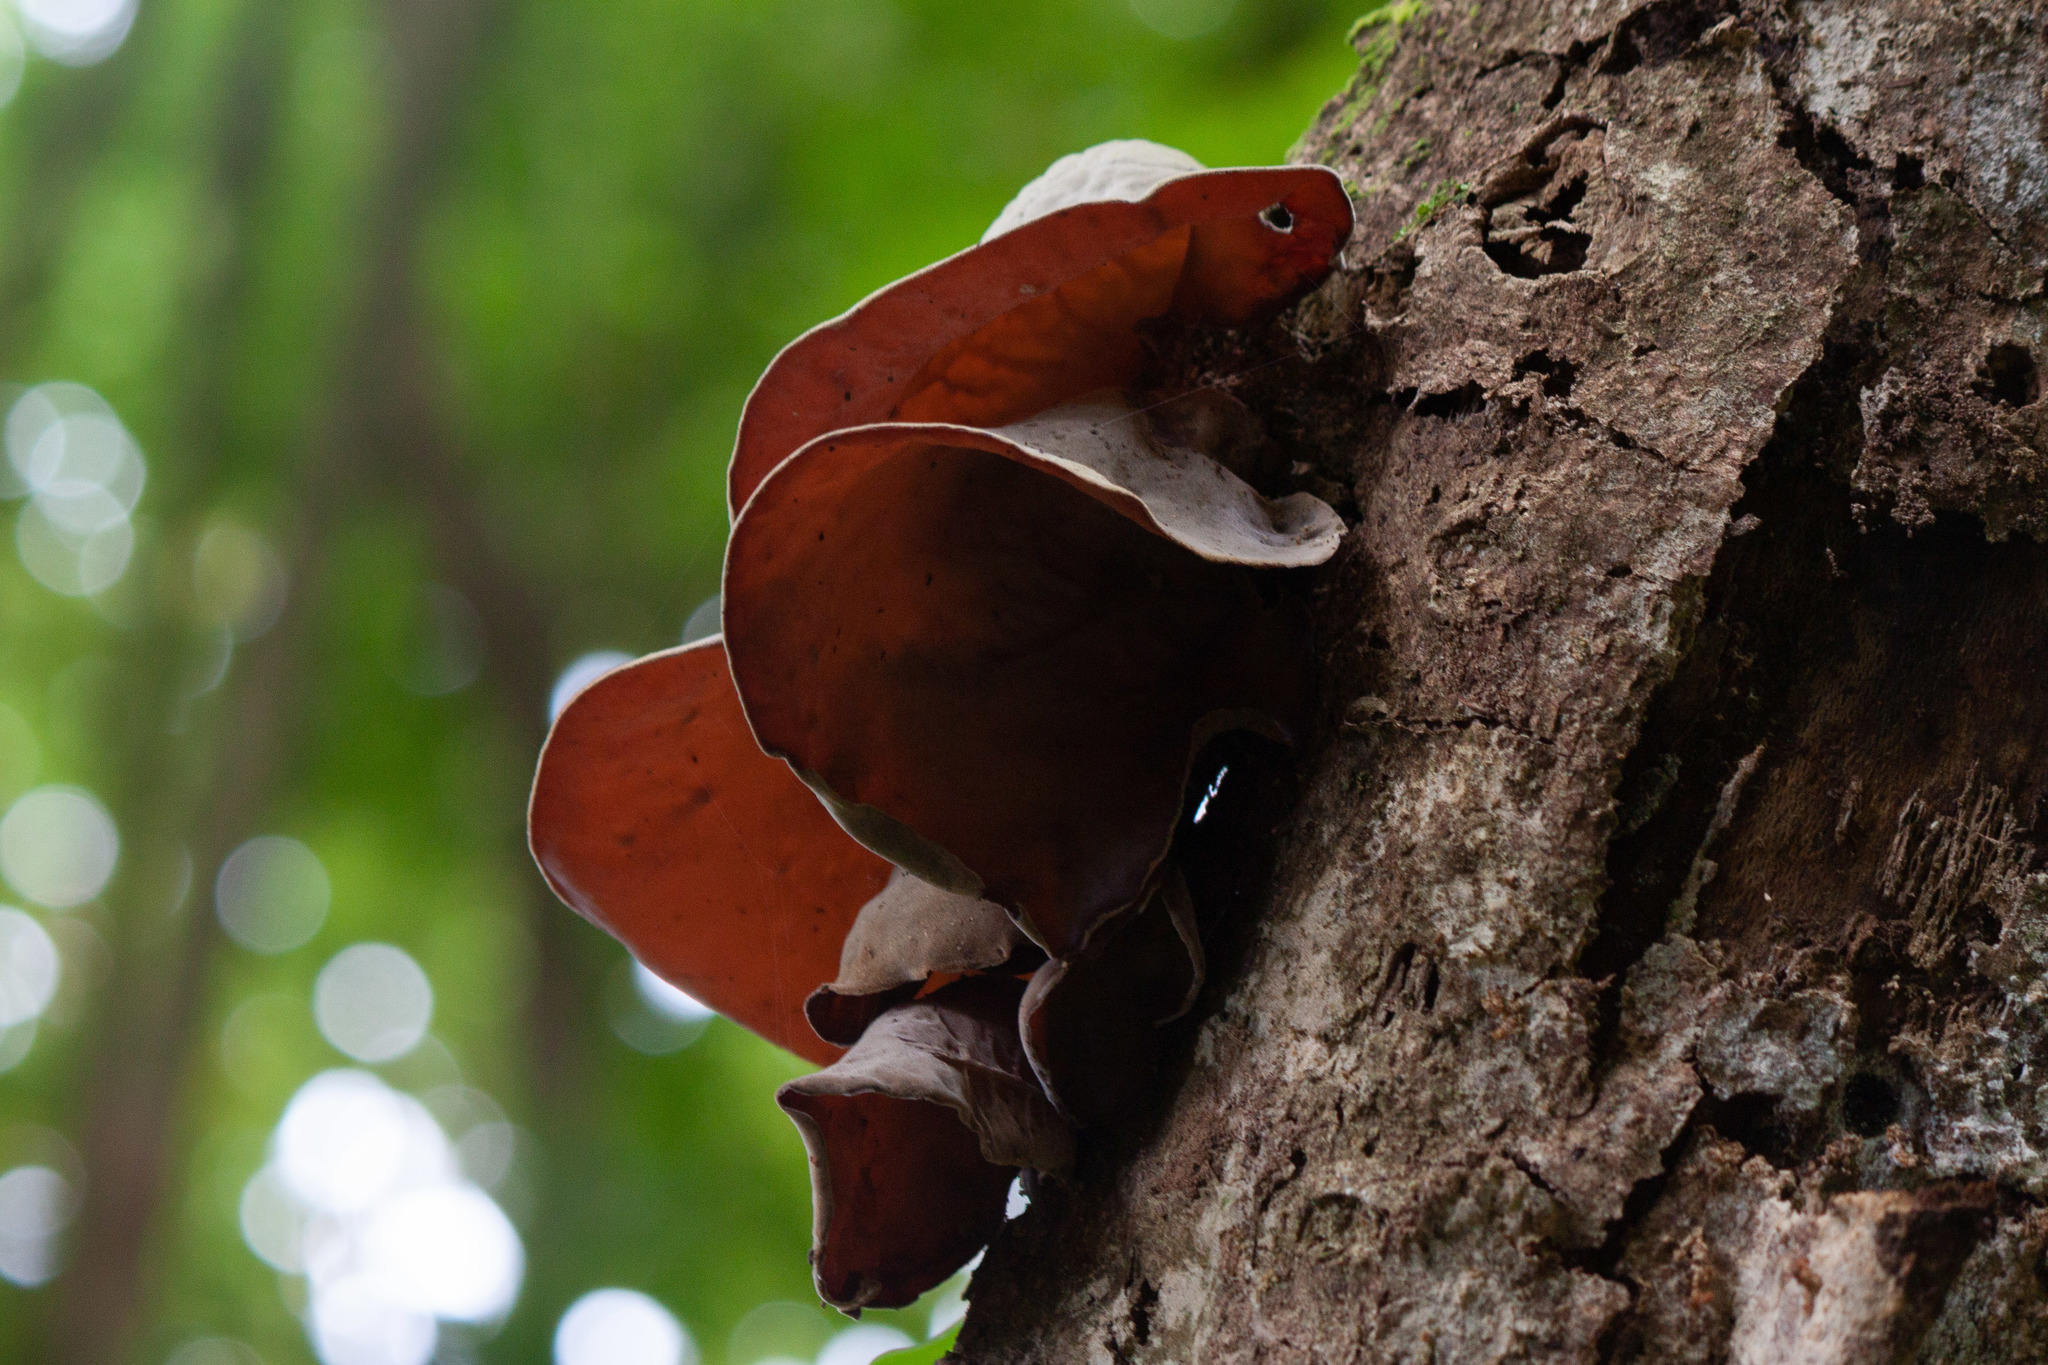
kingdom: Fungi
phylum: Basidiomycota
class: Agaricomycetes
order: Auriculariales
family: Auriculariaceae
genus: Auricularia
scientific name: Auricularia cornea
